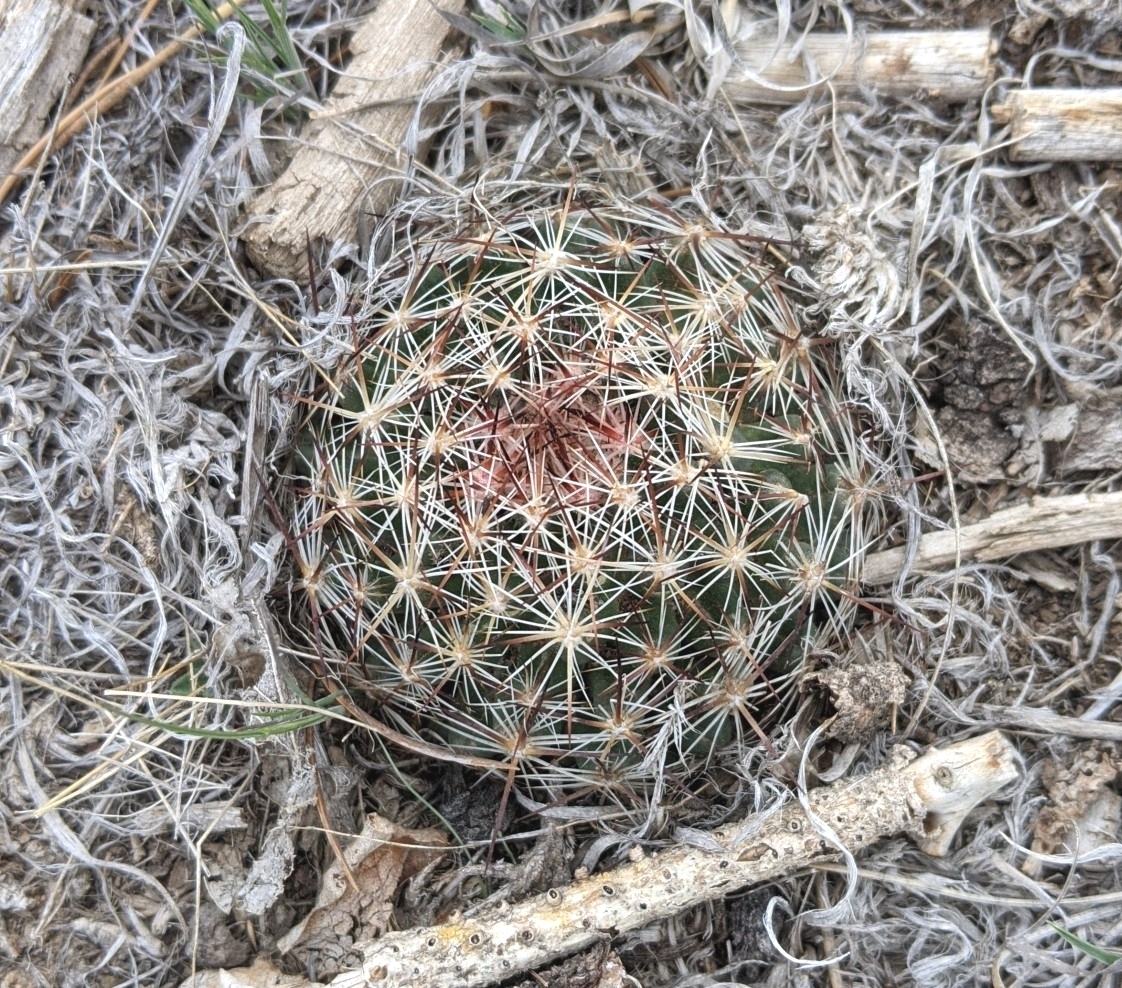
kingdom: Plantae
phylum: Tracheophyta
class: Magnoliopsida
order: Caryophyllales
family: Cactaceae
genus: Pelecyphora
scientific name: Pelecyphora vivipara
